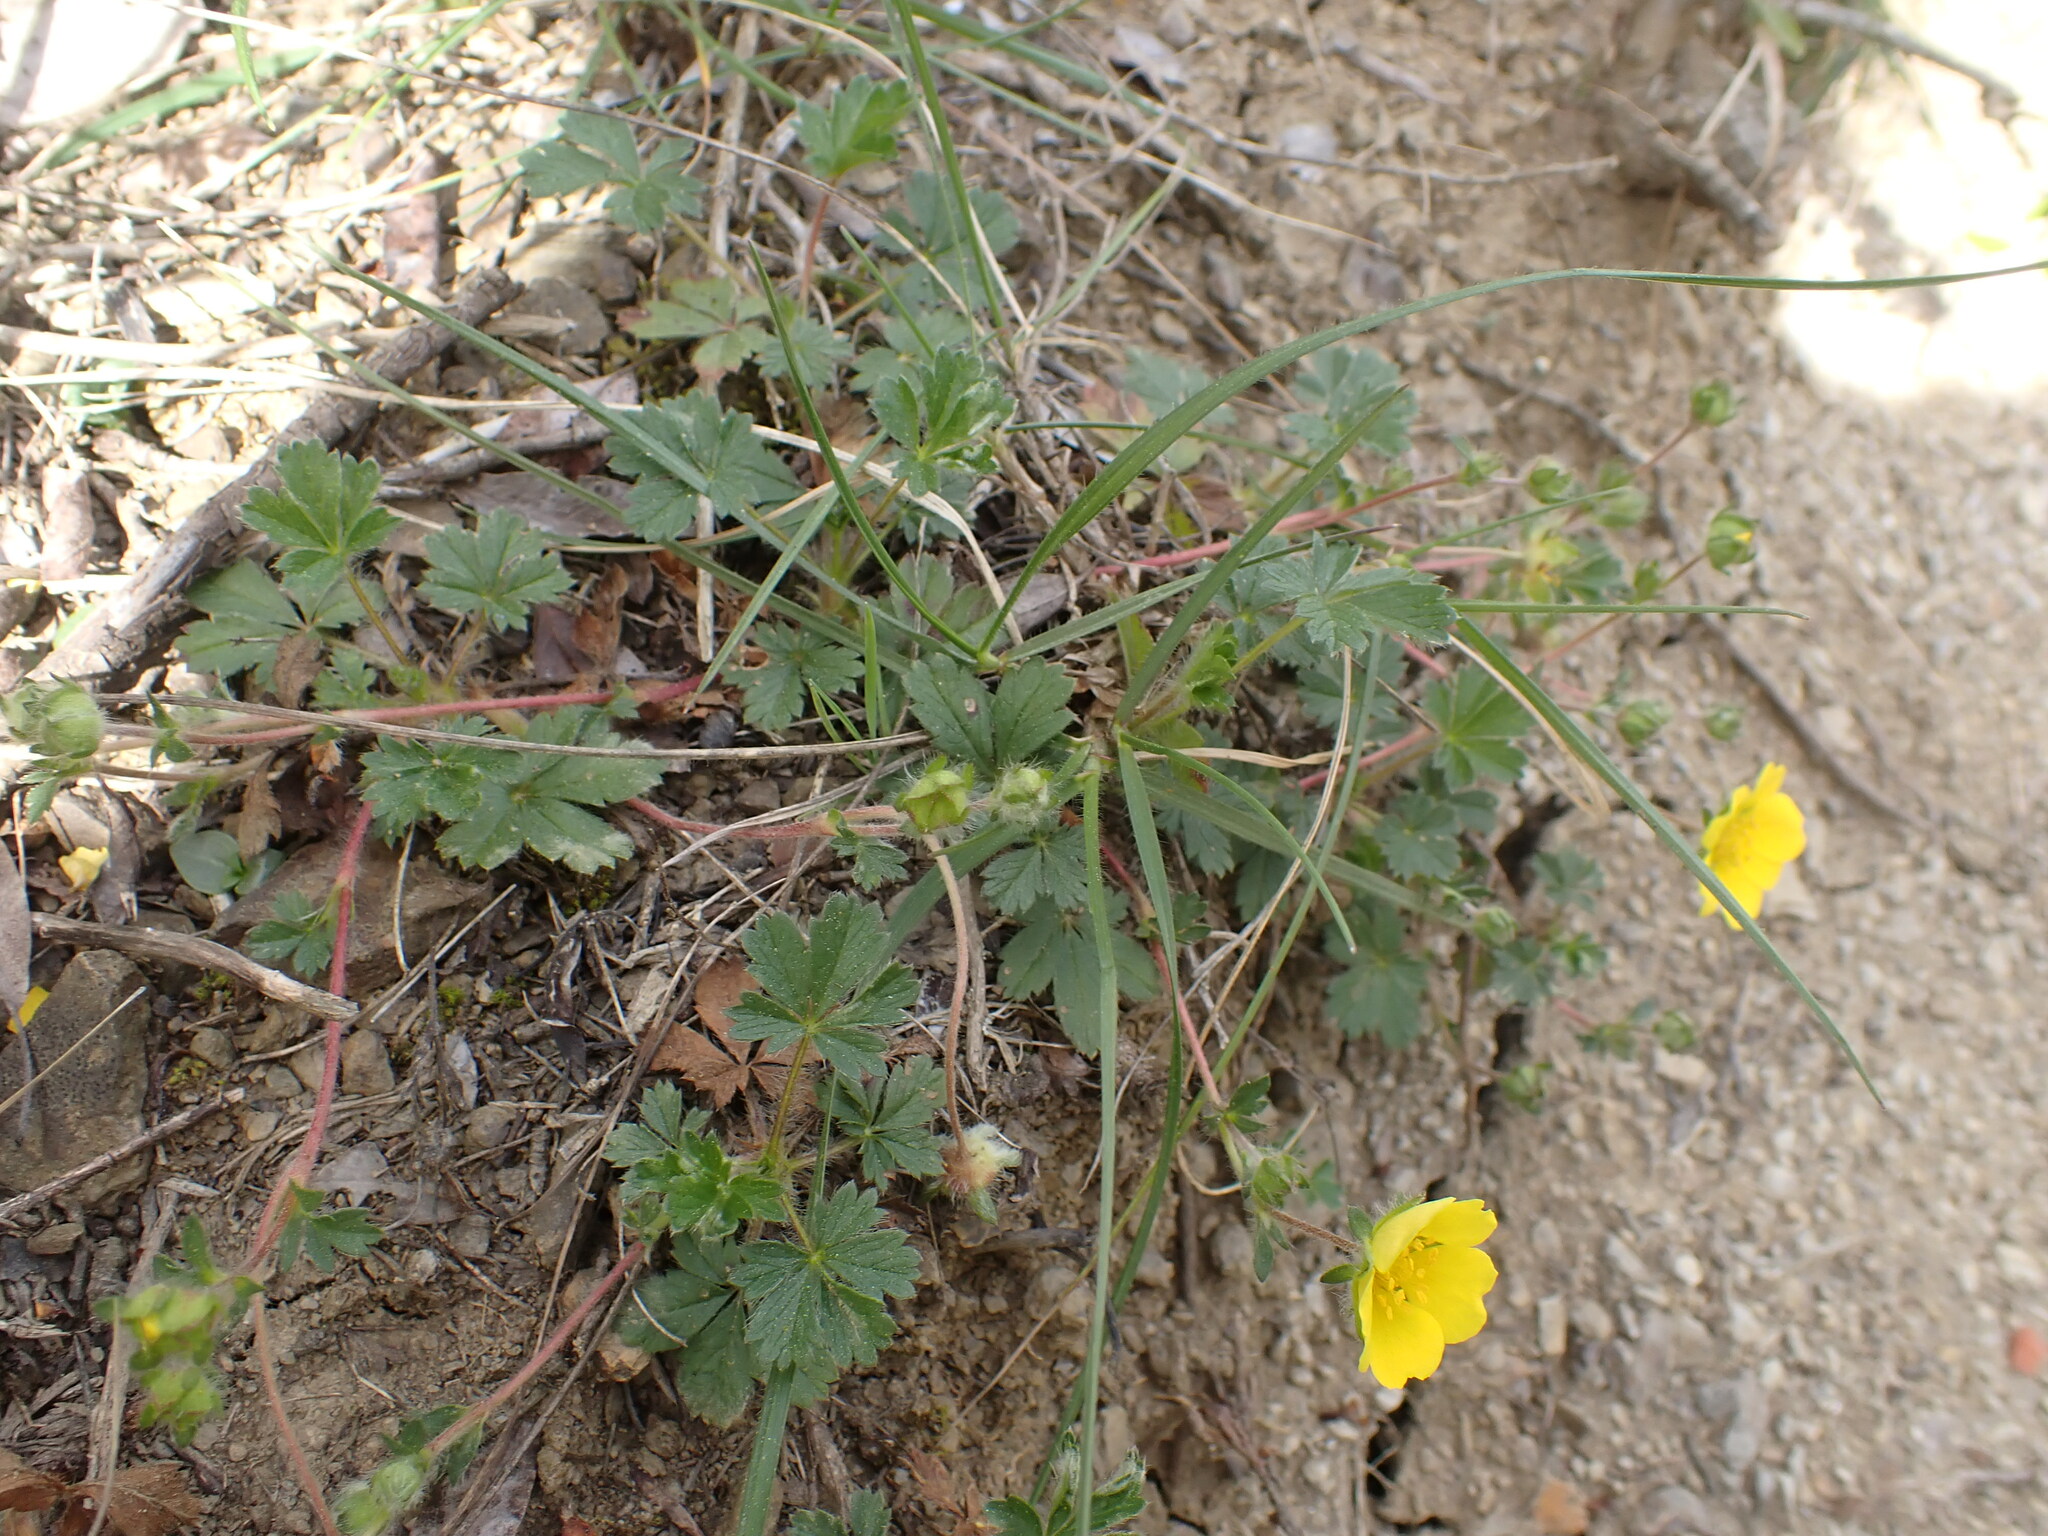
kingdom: Plantae
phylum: Tracheophyta
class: Magnoliopsida
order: Rosales
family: Rosaceae
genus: Potentilla
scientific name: Potentilla verna
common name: Spring cinquefoil
